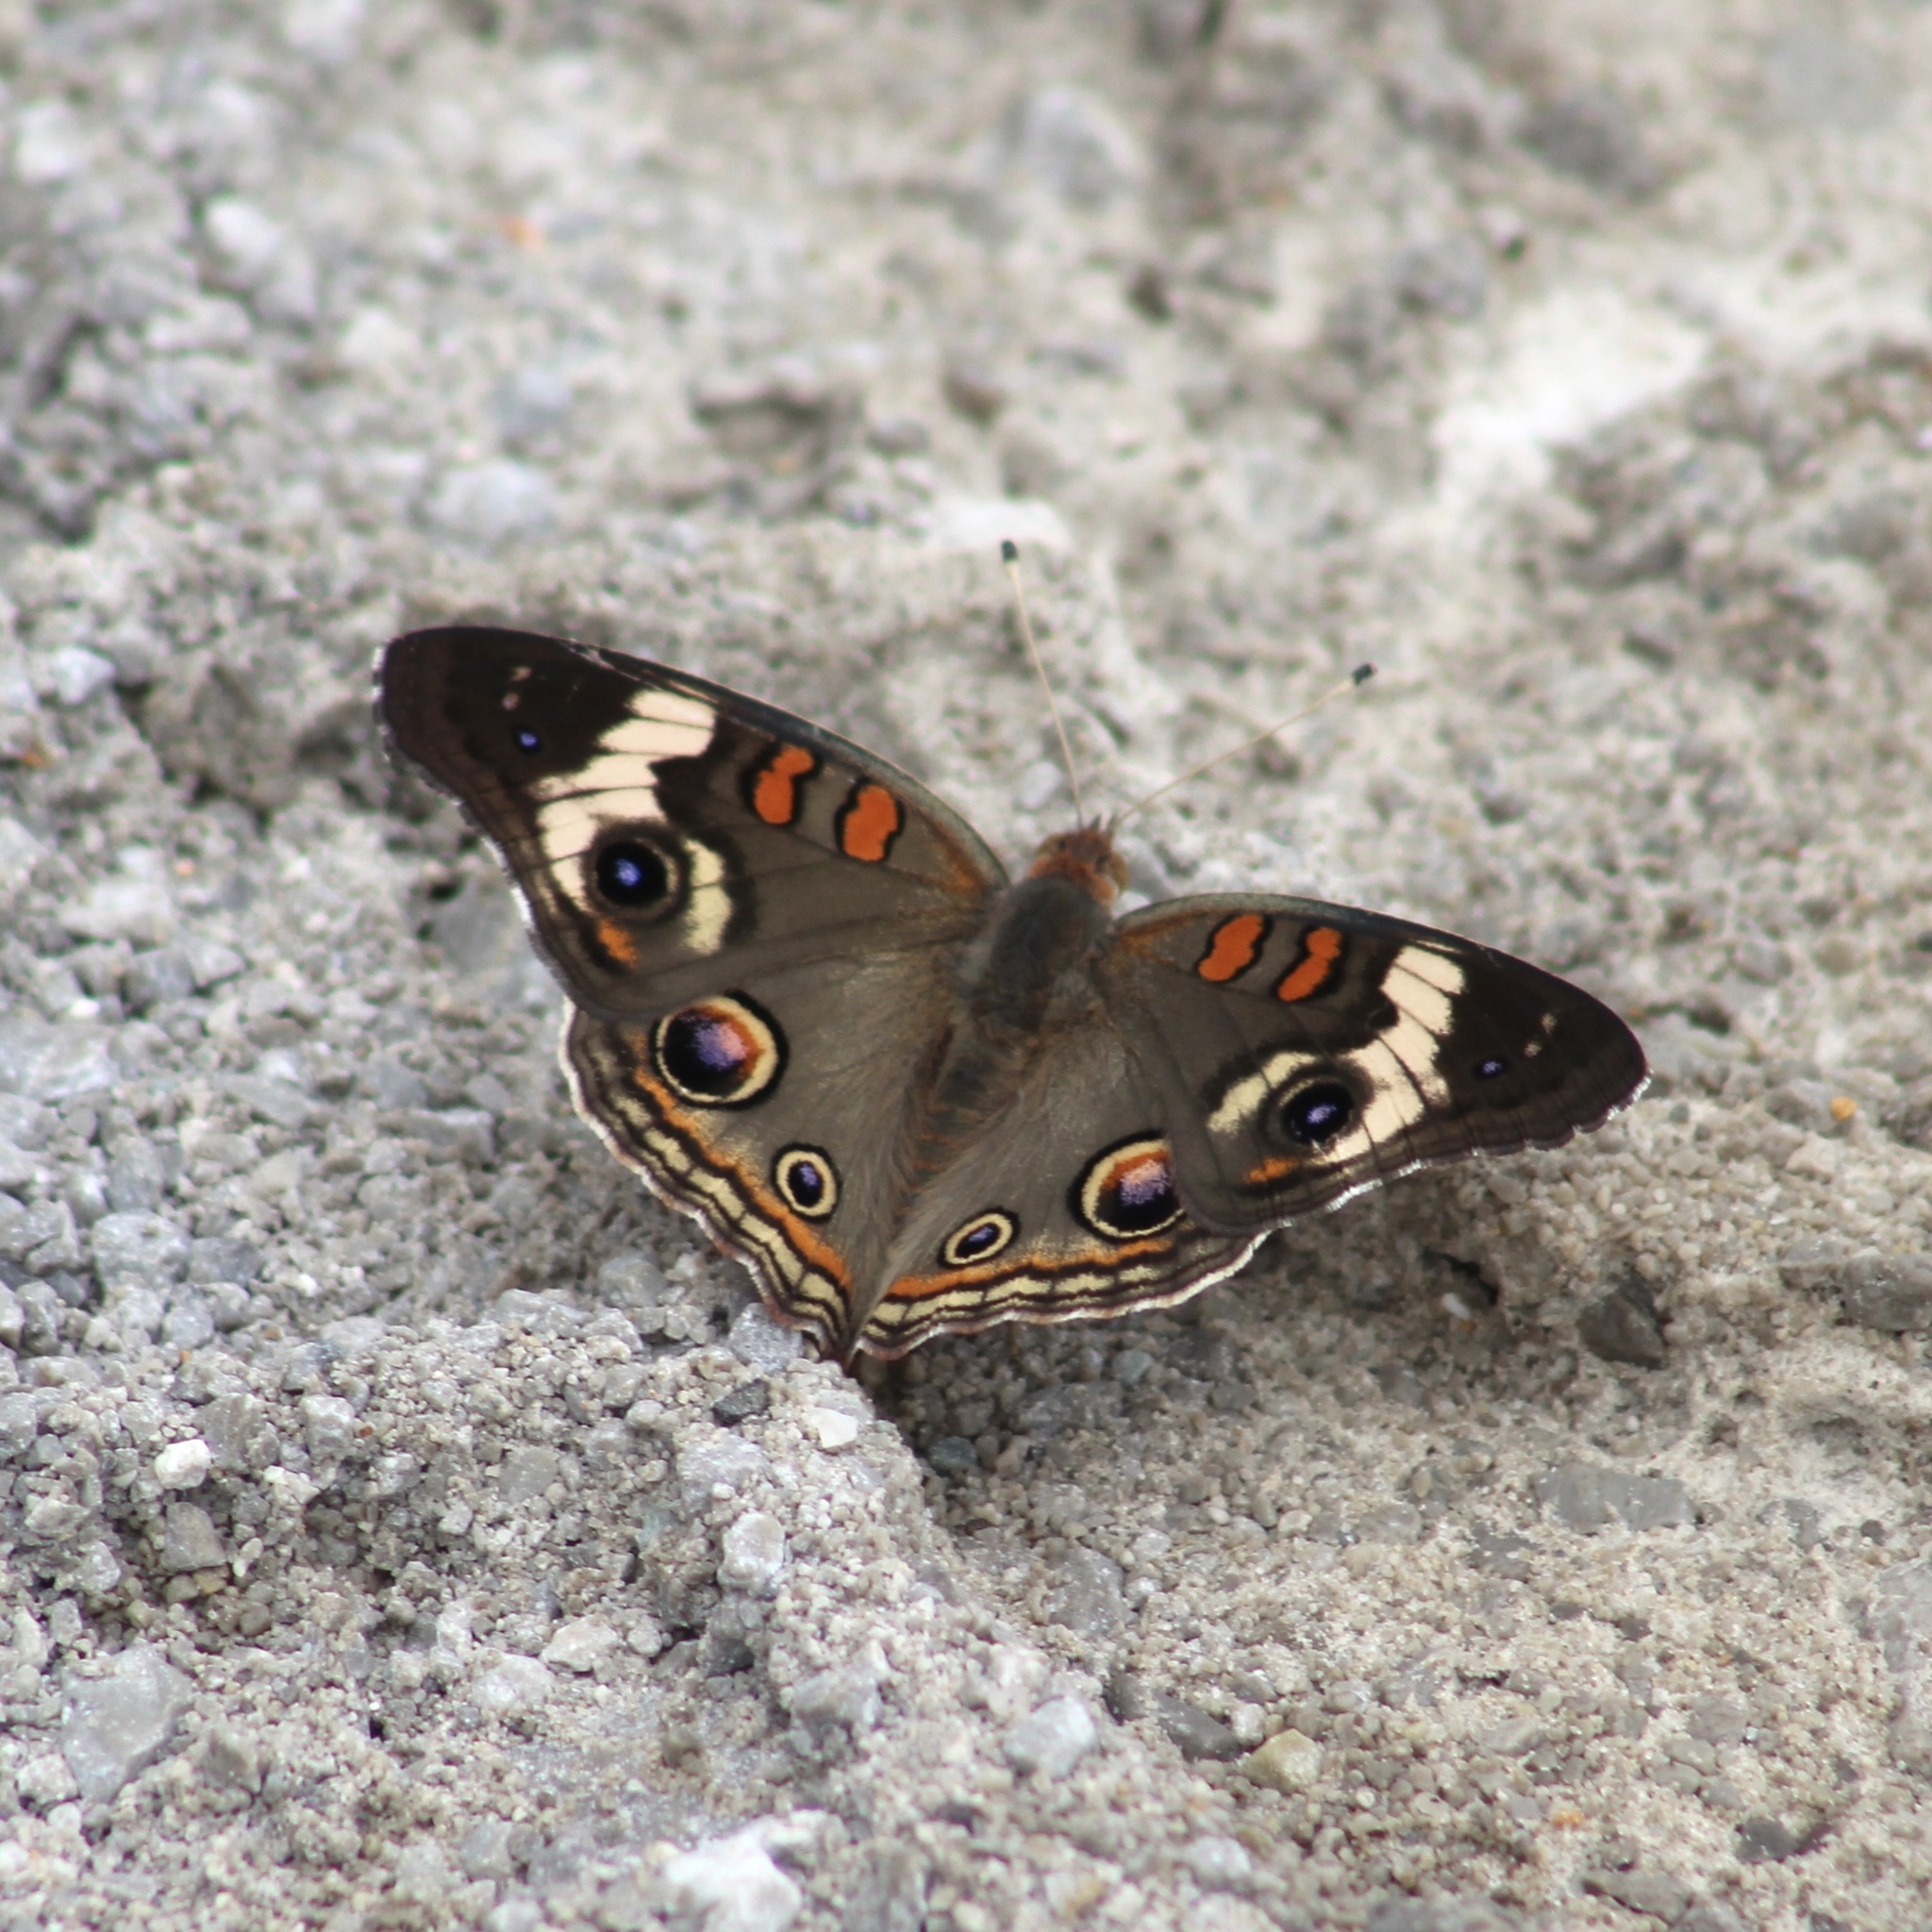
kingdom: Animalia
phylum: Arthropoda
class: Insecta
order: Lepidoptera
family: Nymphalidae
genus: Junonia
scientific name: Junonia coenia
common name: Common buckeye
